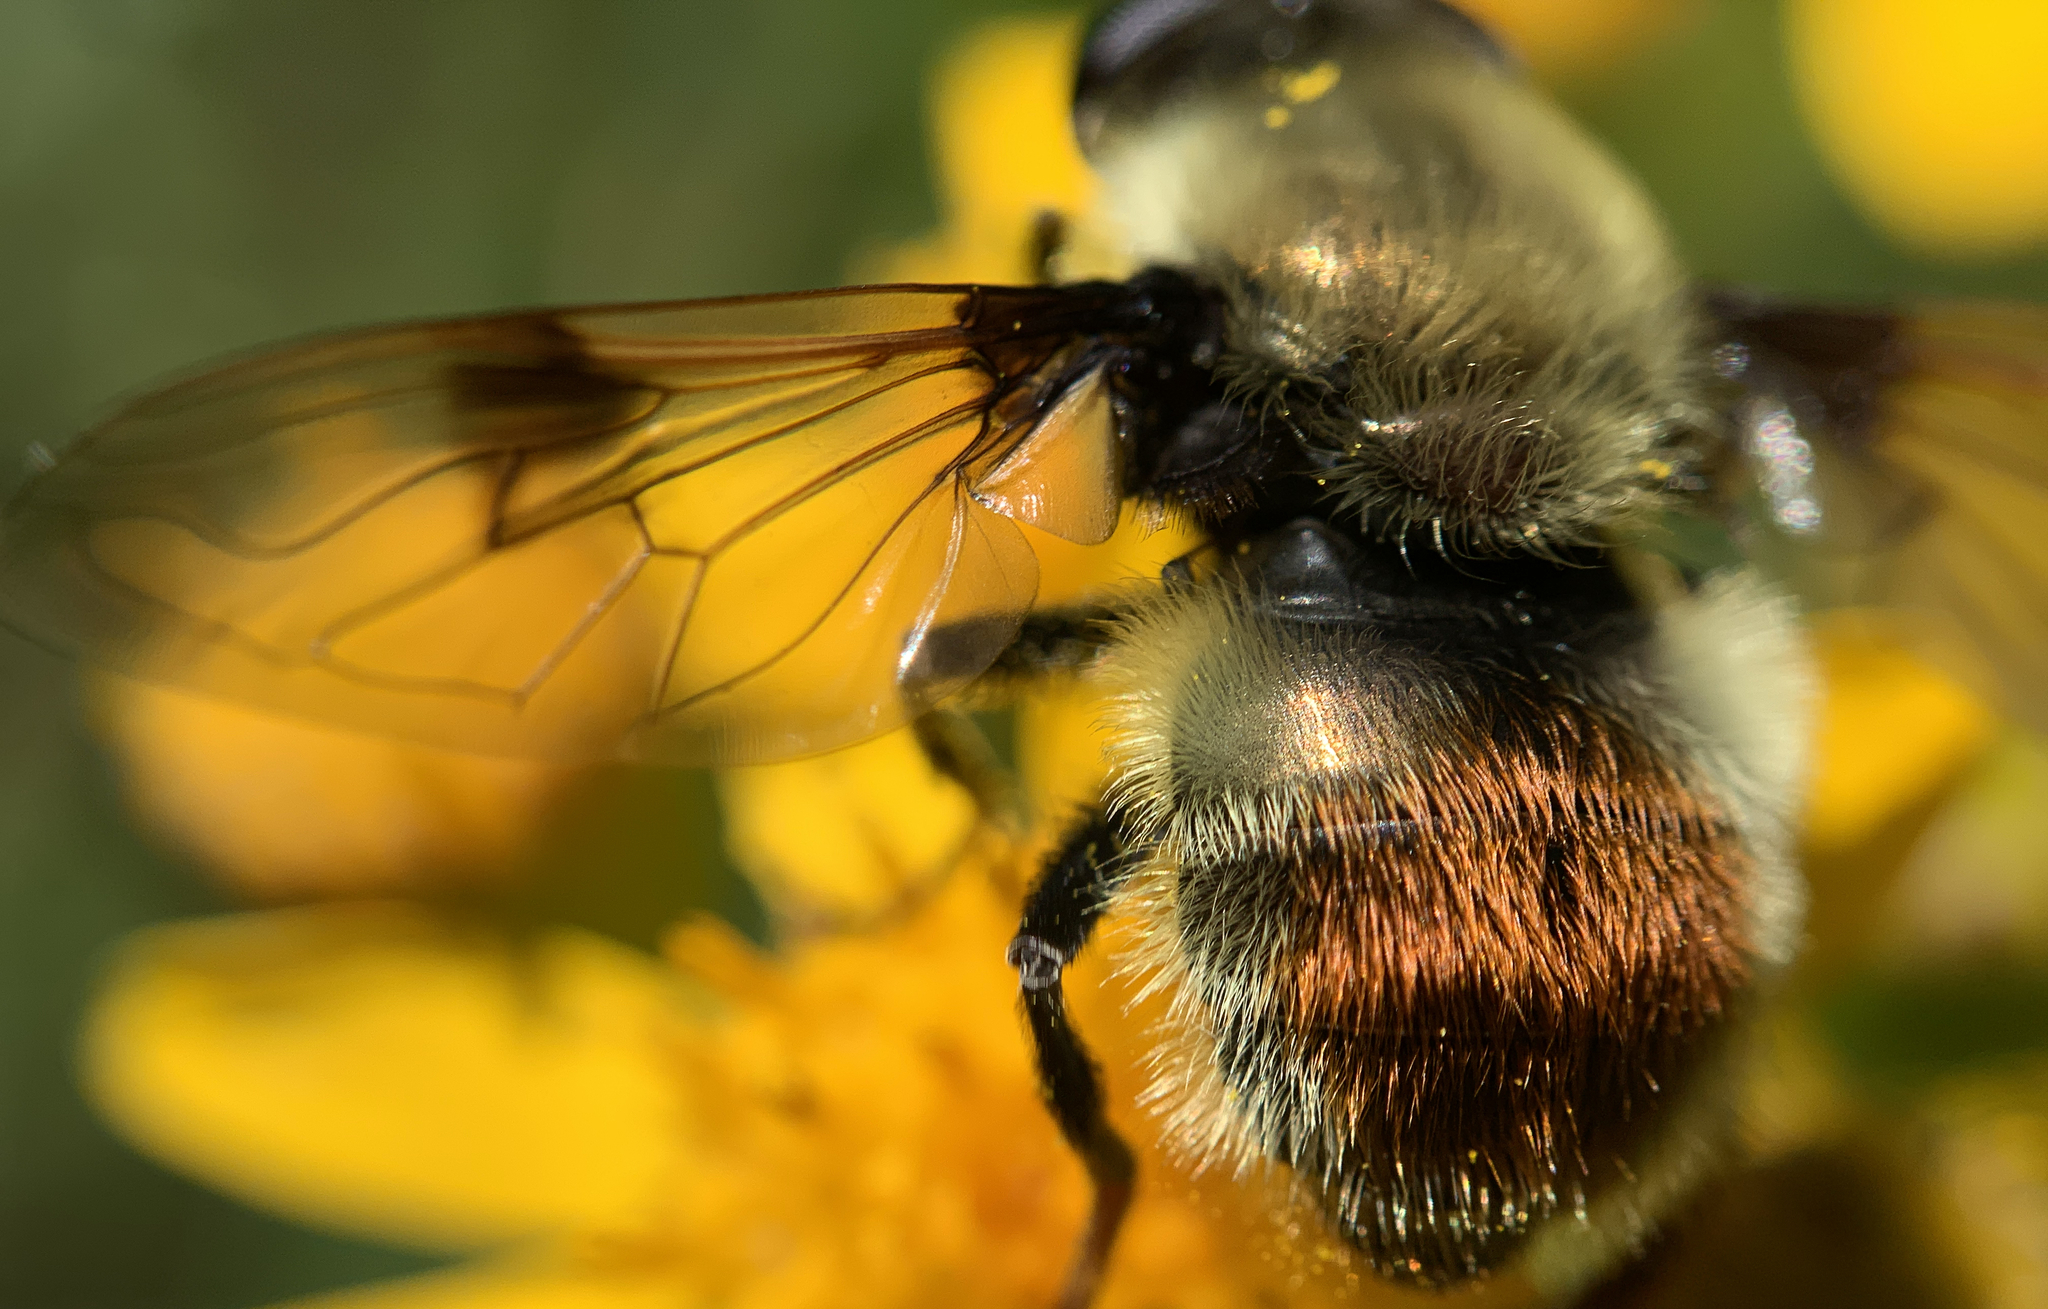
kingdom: Animalia
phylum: Arthropoda
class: Insecta
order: Diptera
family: Syrphidae
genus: Sericomyia
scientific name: Sericomyia flagrans
